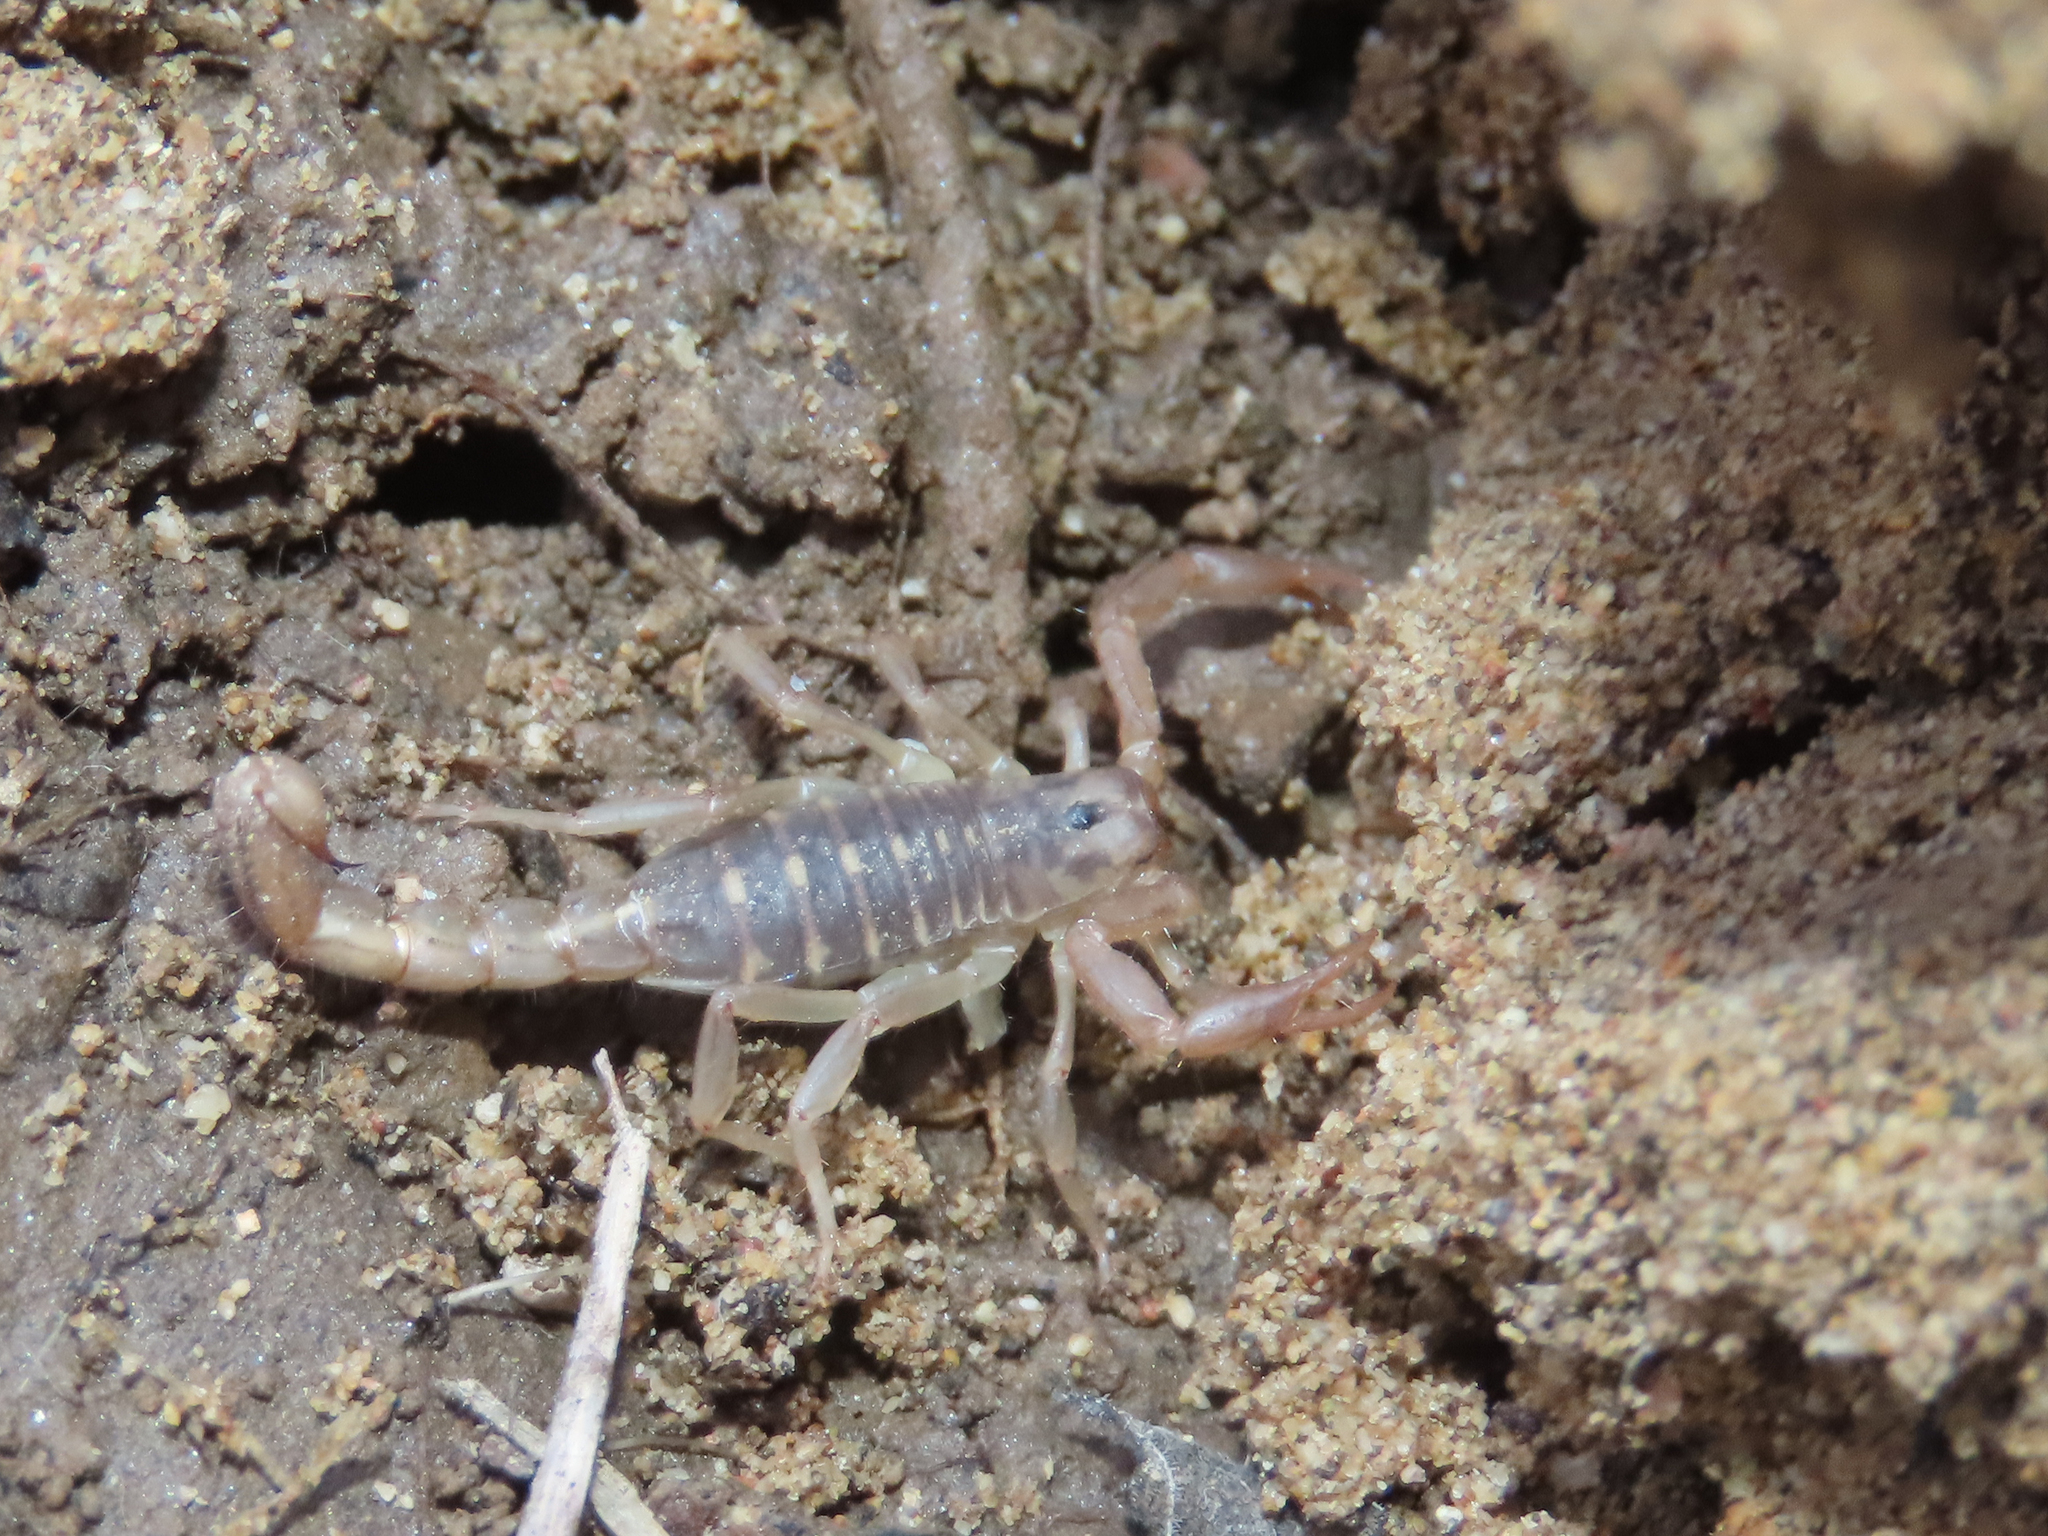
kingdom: Animalia
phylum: Arthropoda
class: Arachnida
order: Scorpiones
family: Vaejovidae
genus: Paravaejovis
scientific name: Paravaejovis spinigerus
